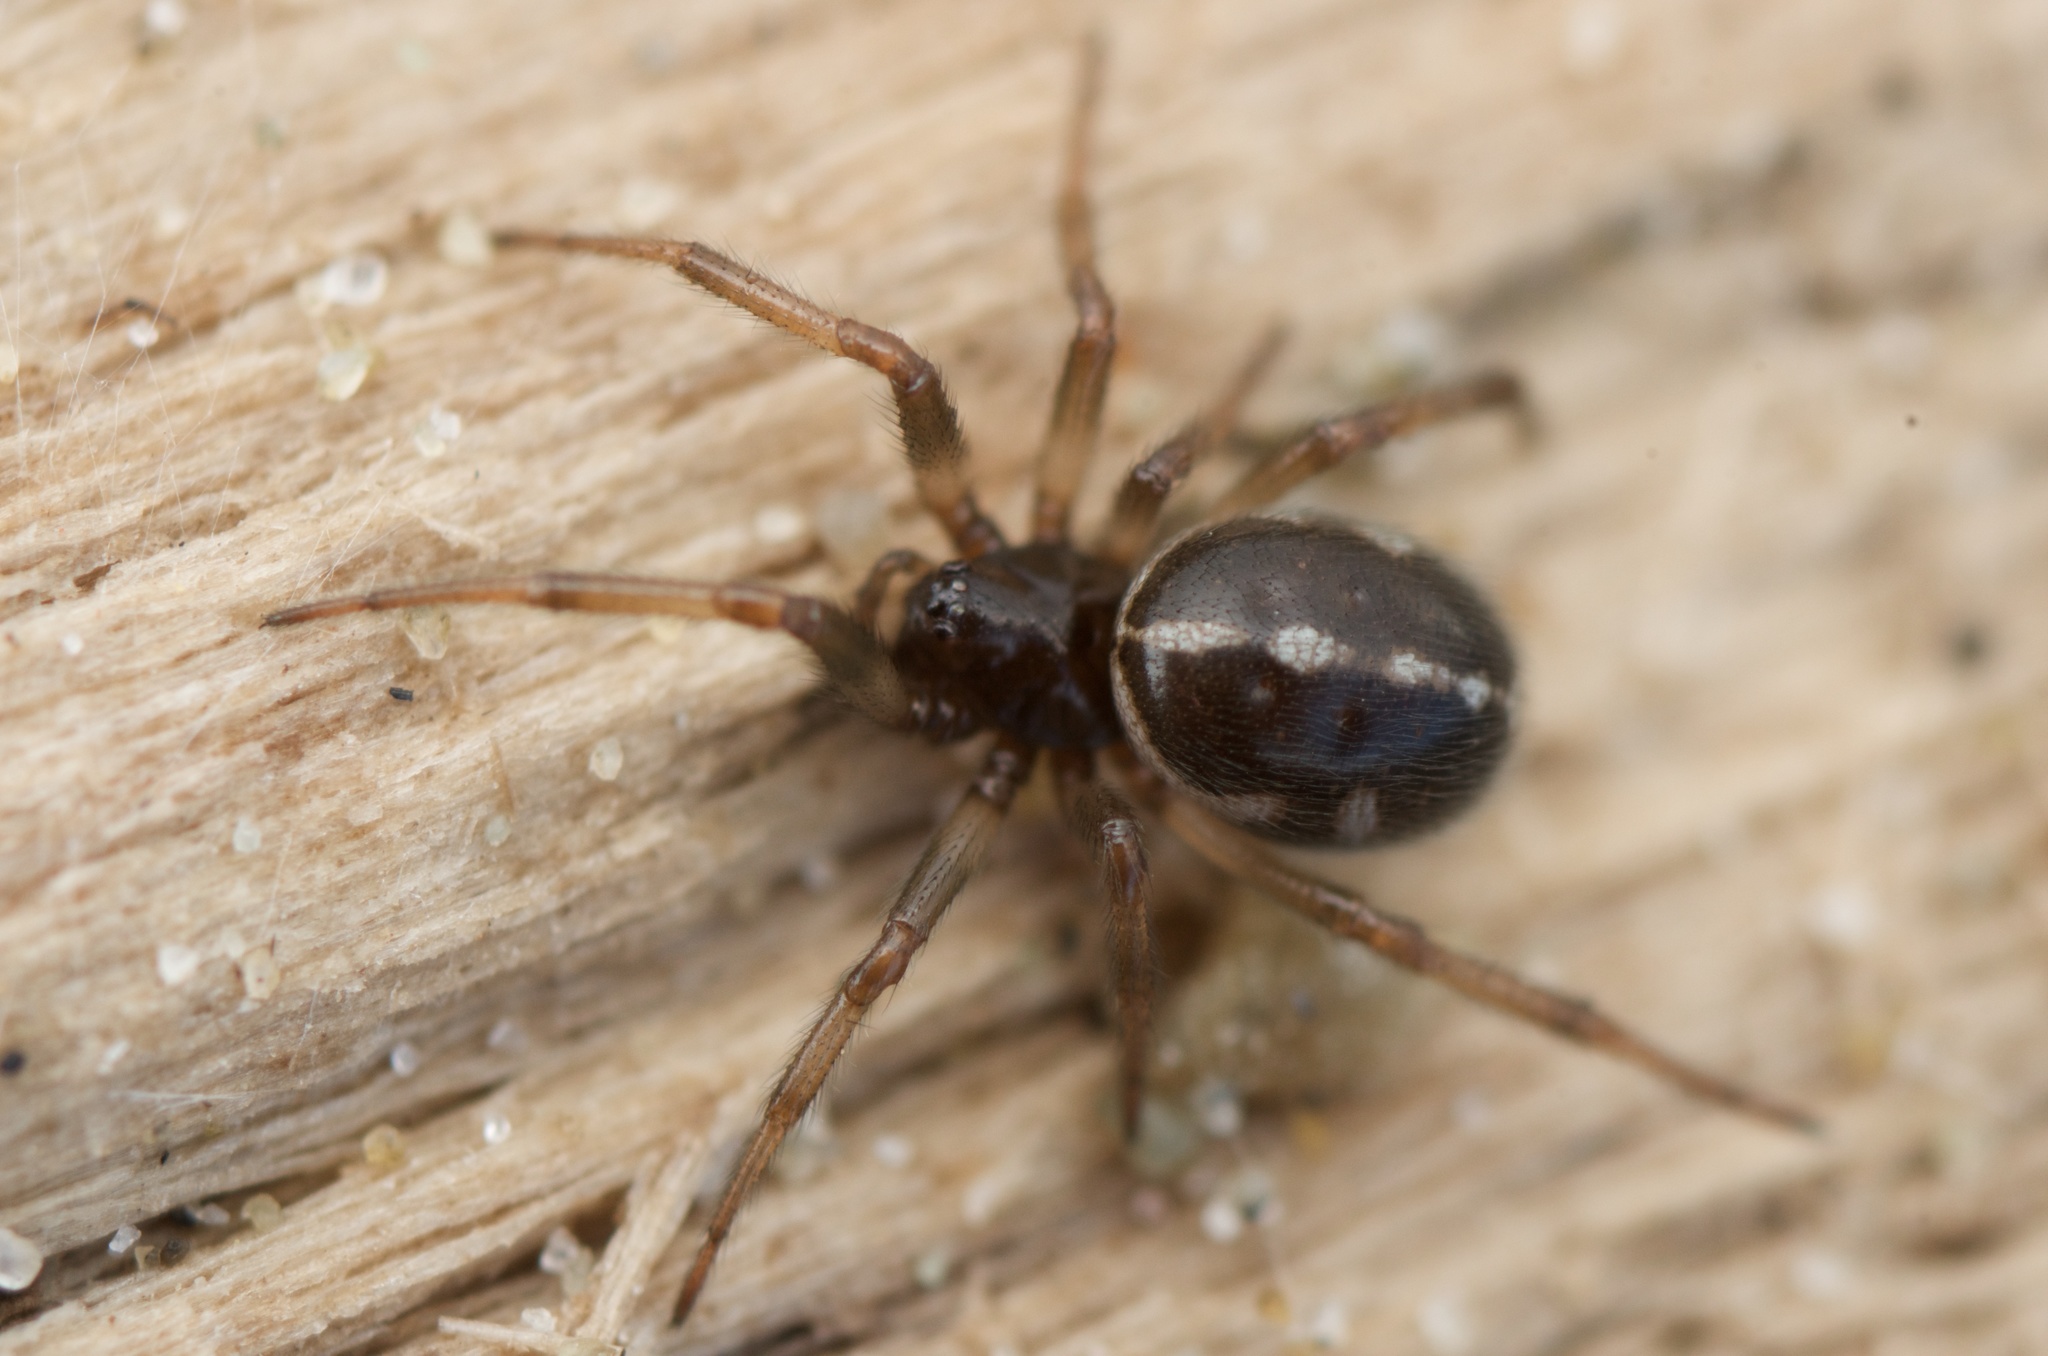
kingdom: Animalia
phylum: Arthropoda
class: Arachnida
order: Araneae
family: Theridiidae
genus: Steatoda
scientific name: Steatoda truncata
